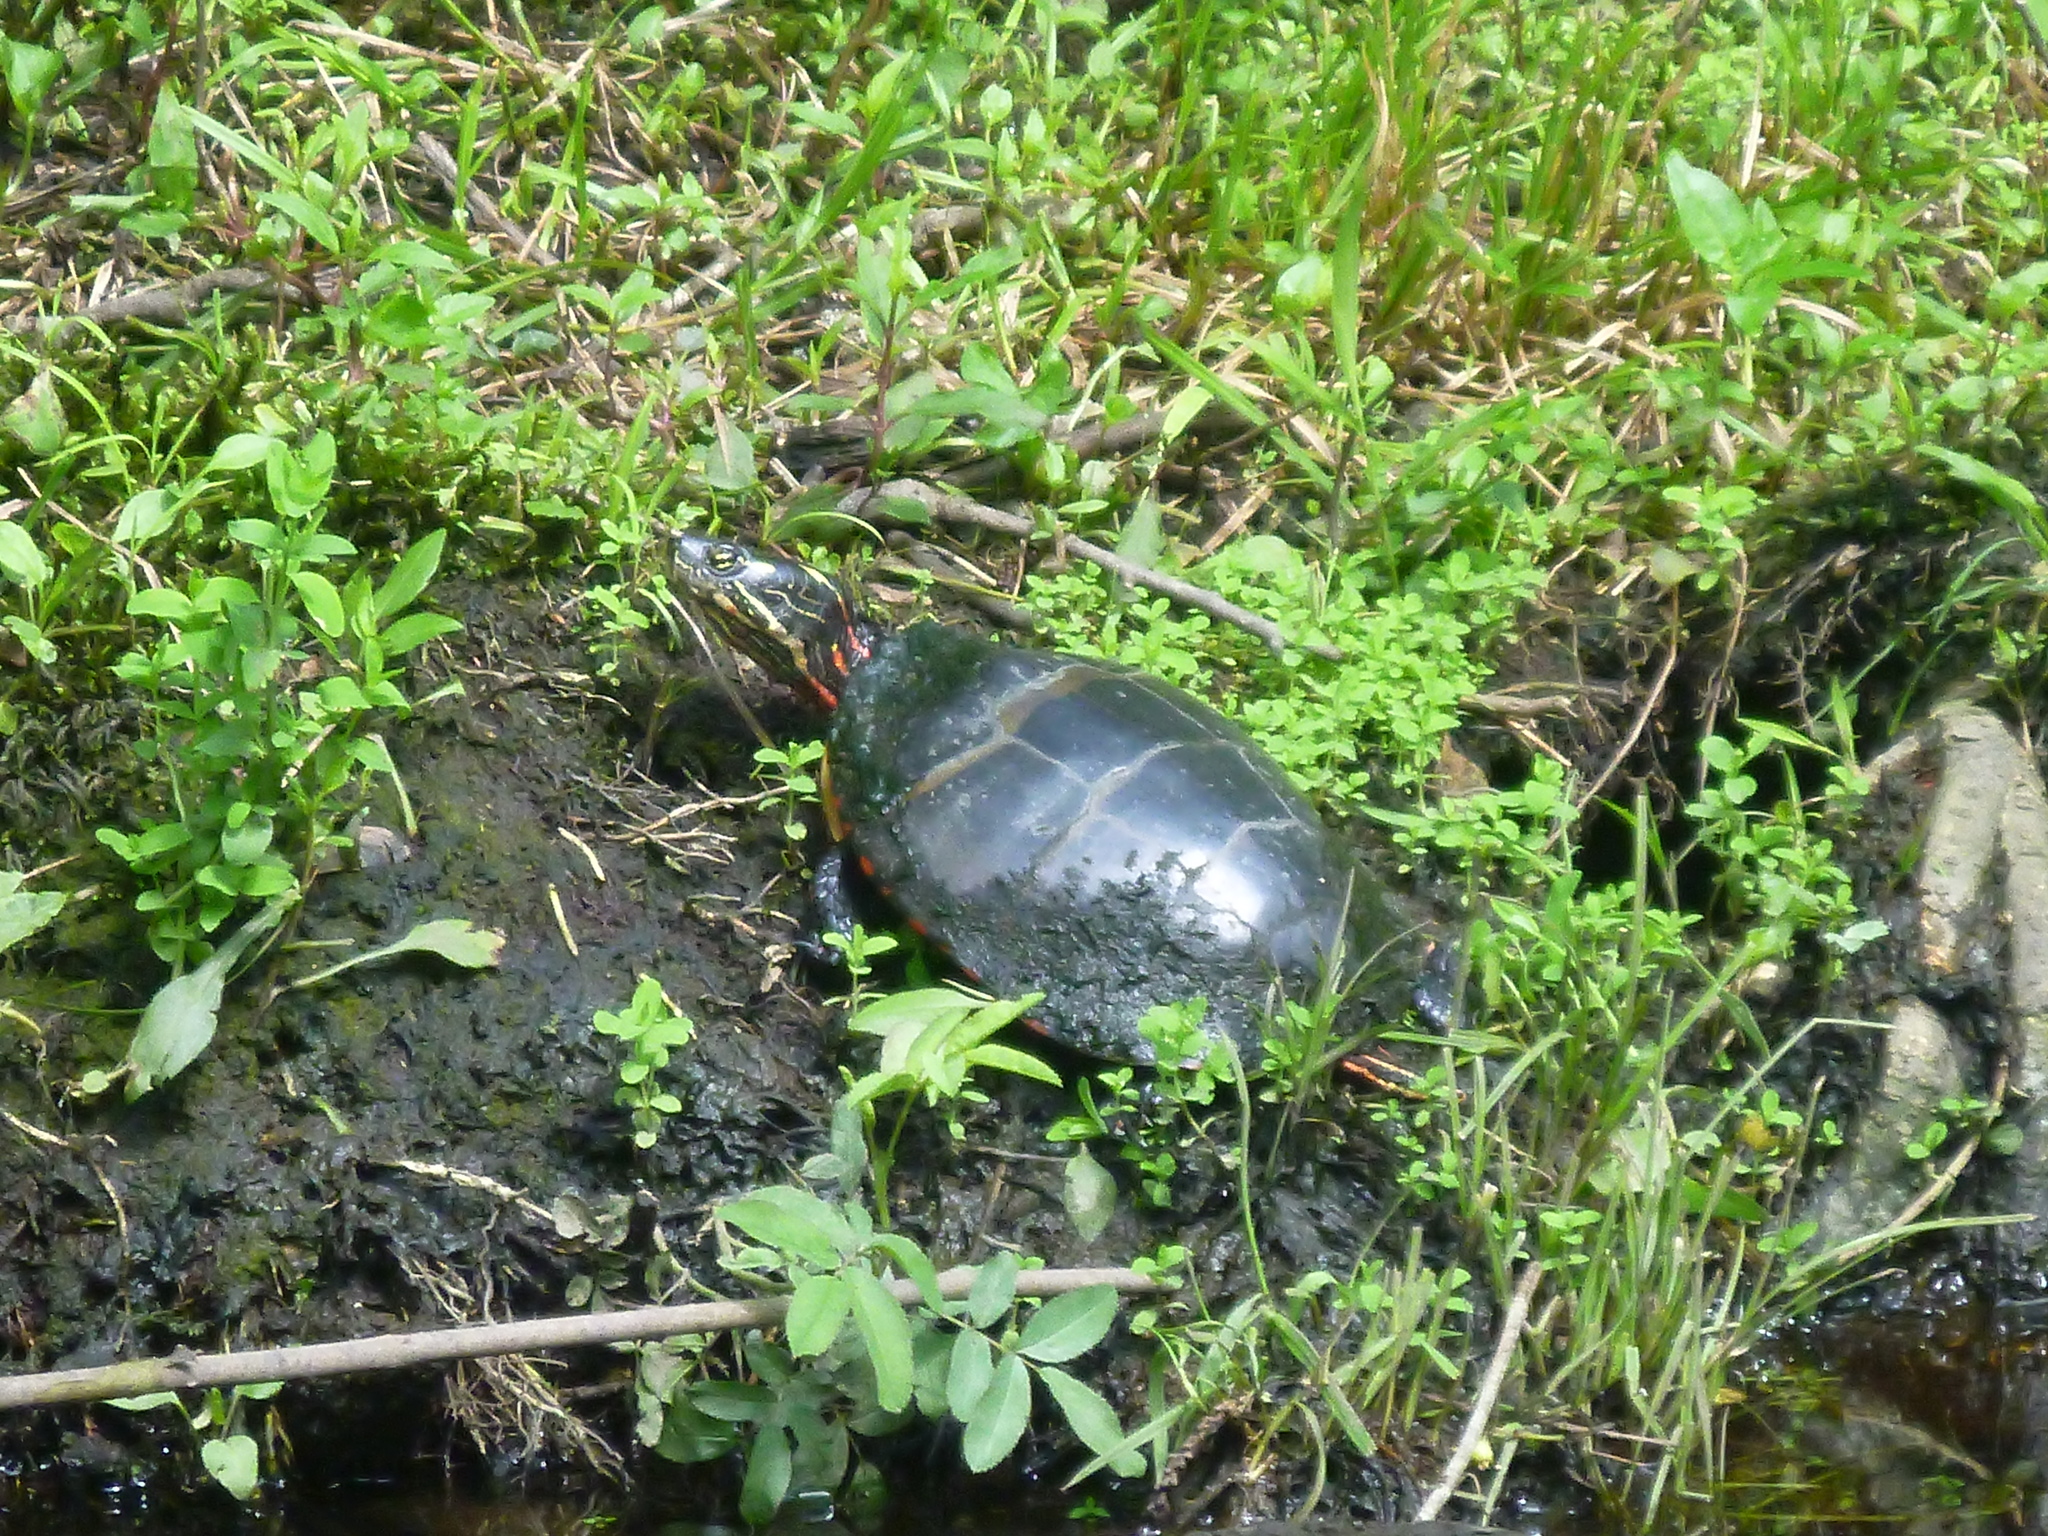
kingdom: Animalia
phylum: Chordata
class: Testudines
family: Emydidae
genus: Chrysemys
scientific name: Chrysemys picta
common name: Painted turtle
